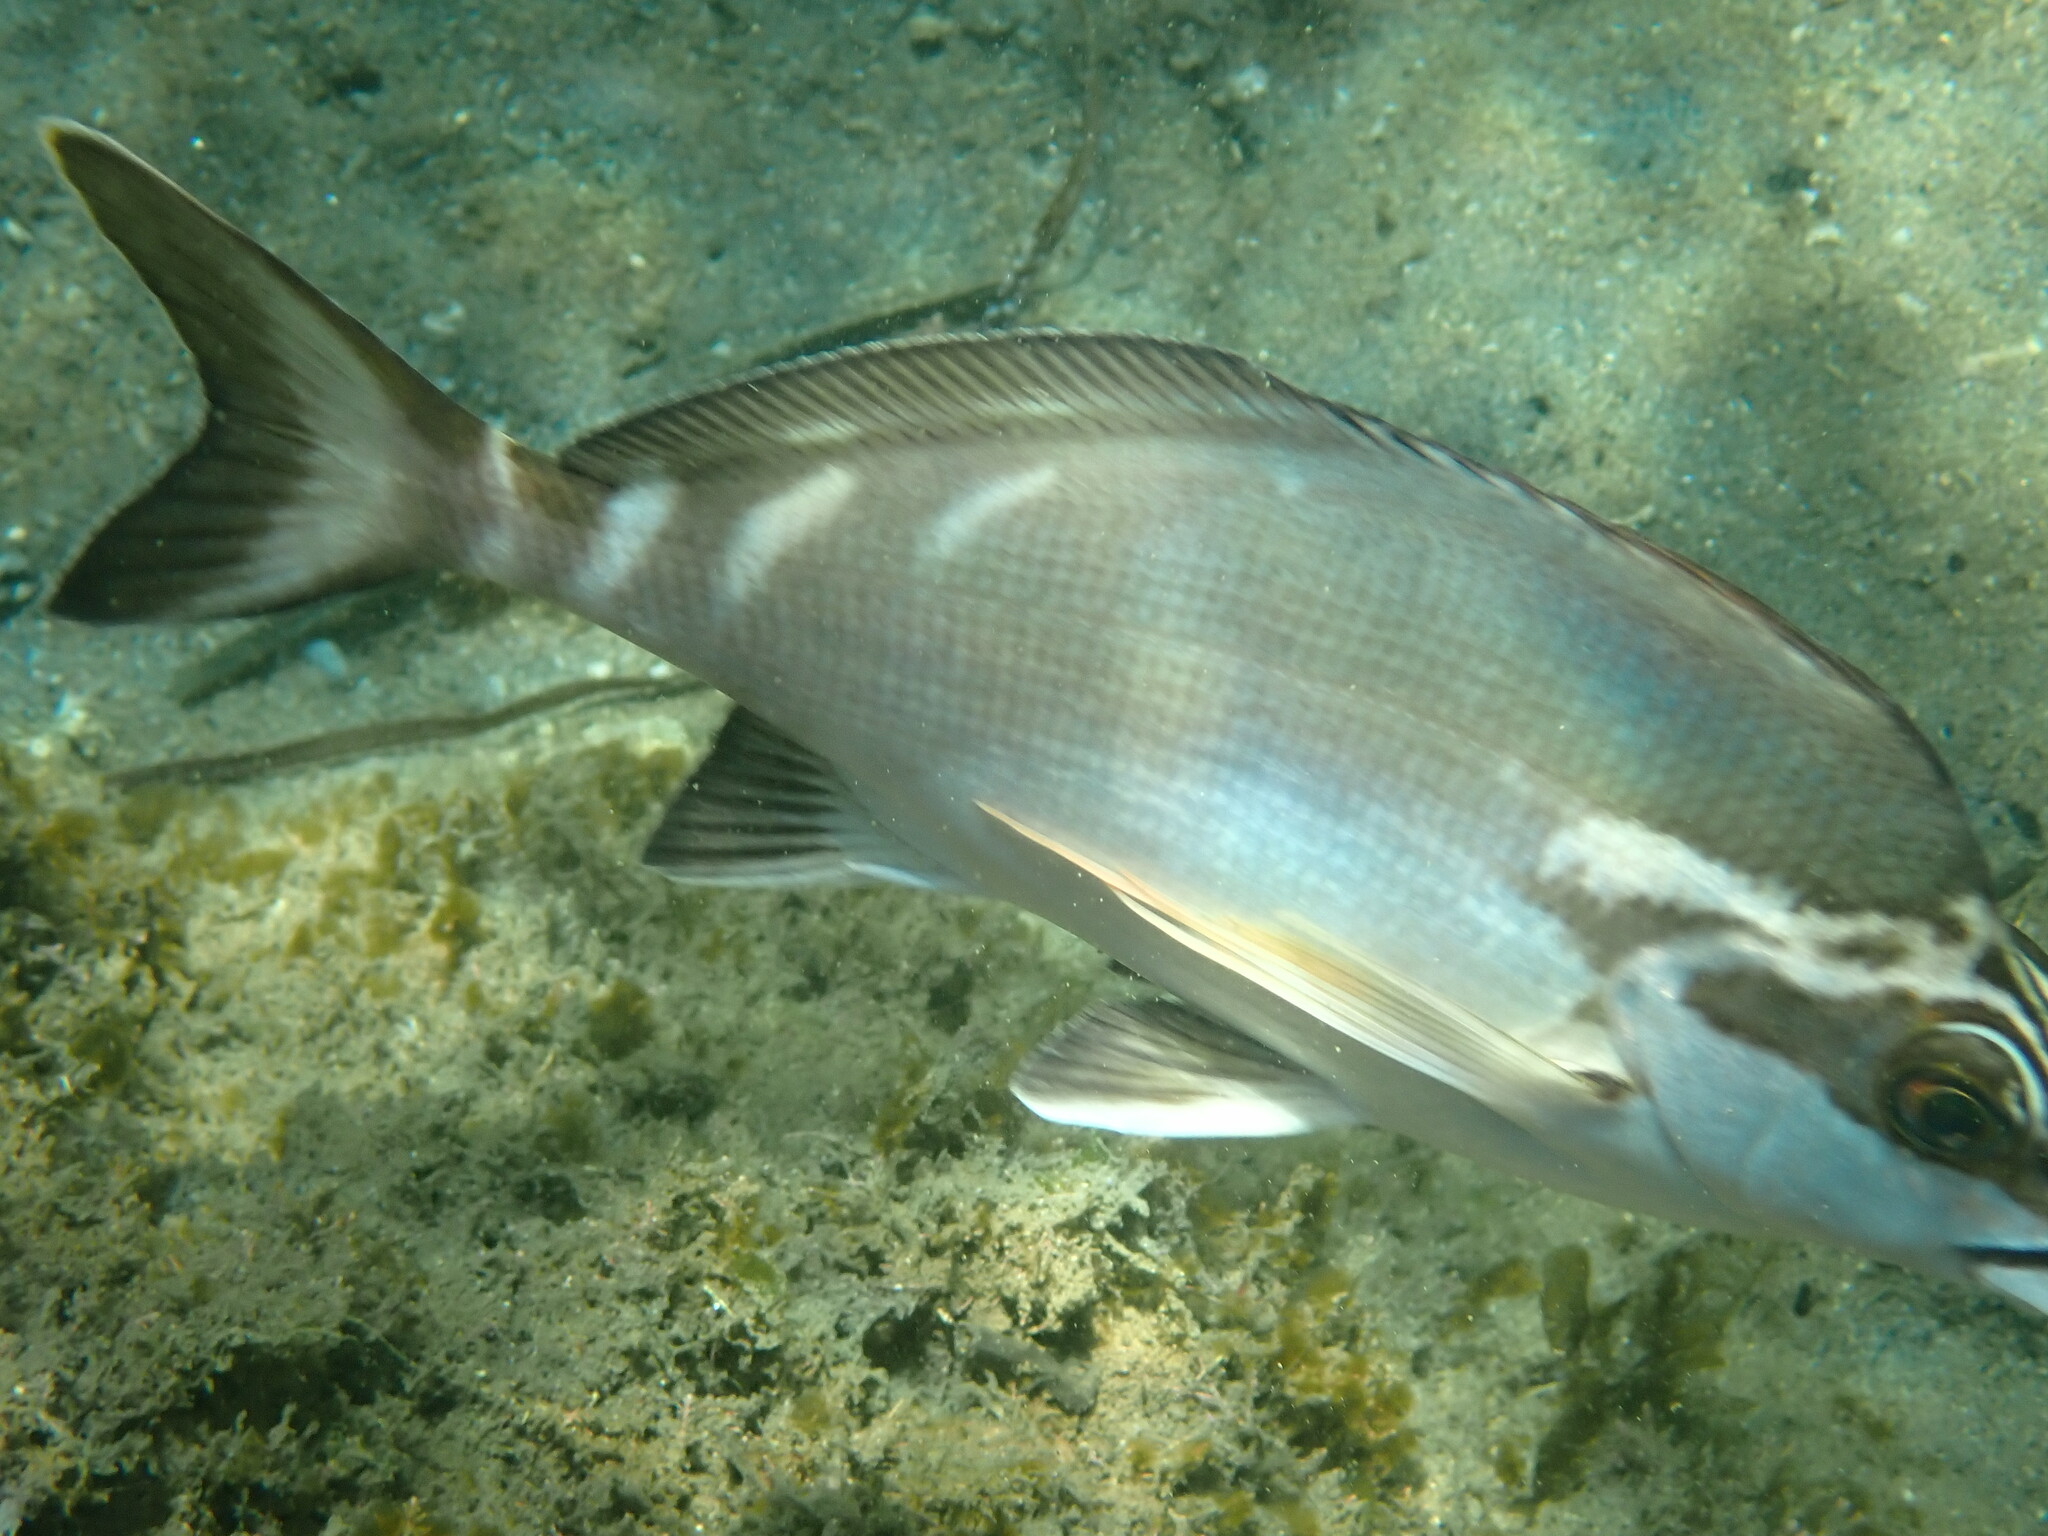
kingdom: Animalia
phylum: Chordata
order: Perciformes
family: Latridae
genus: Morwong
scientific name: Morwong fuscus
